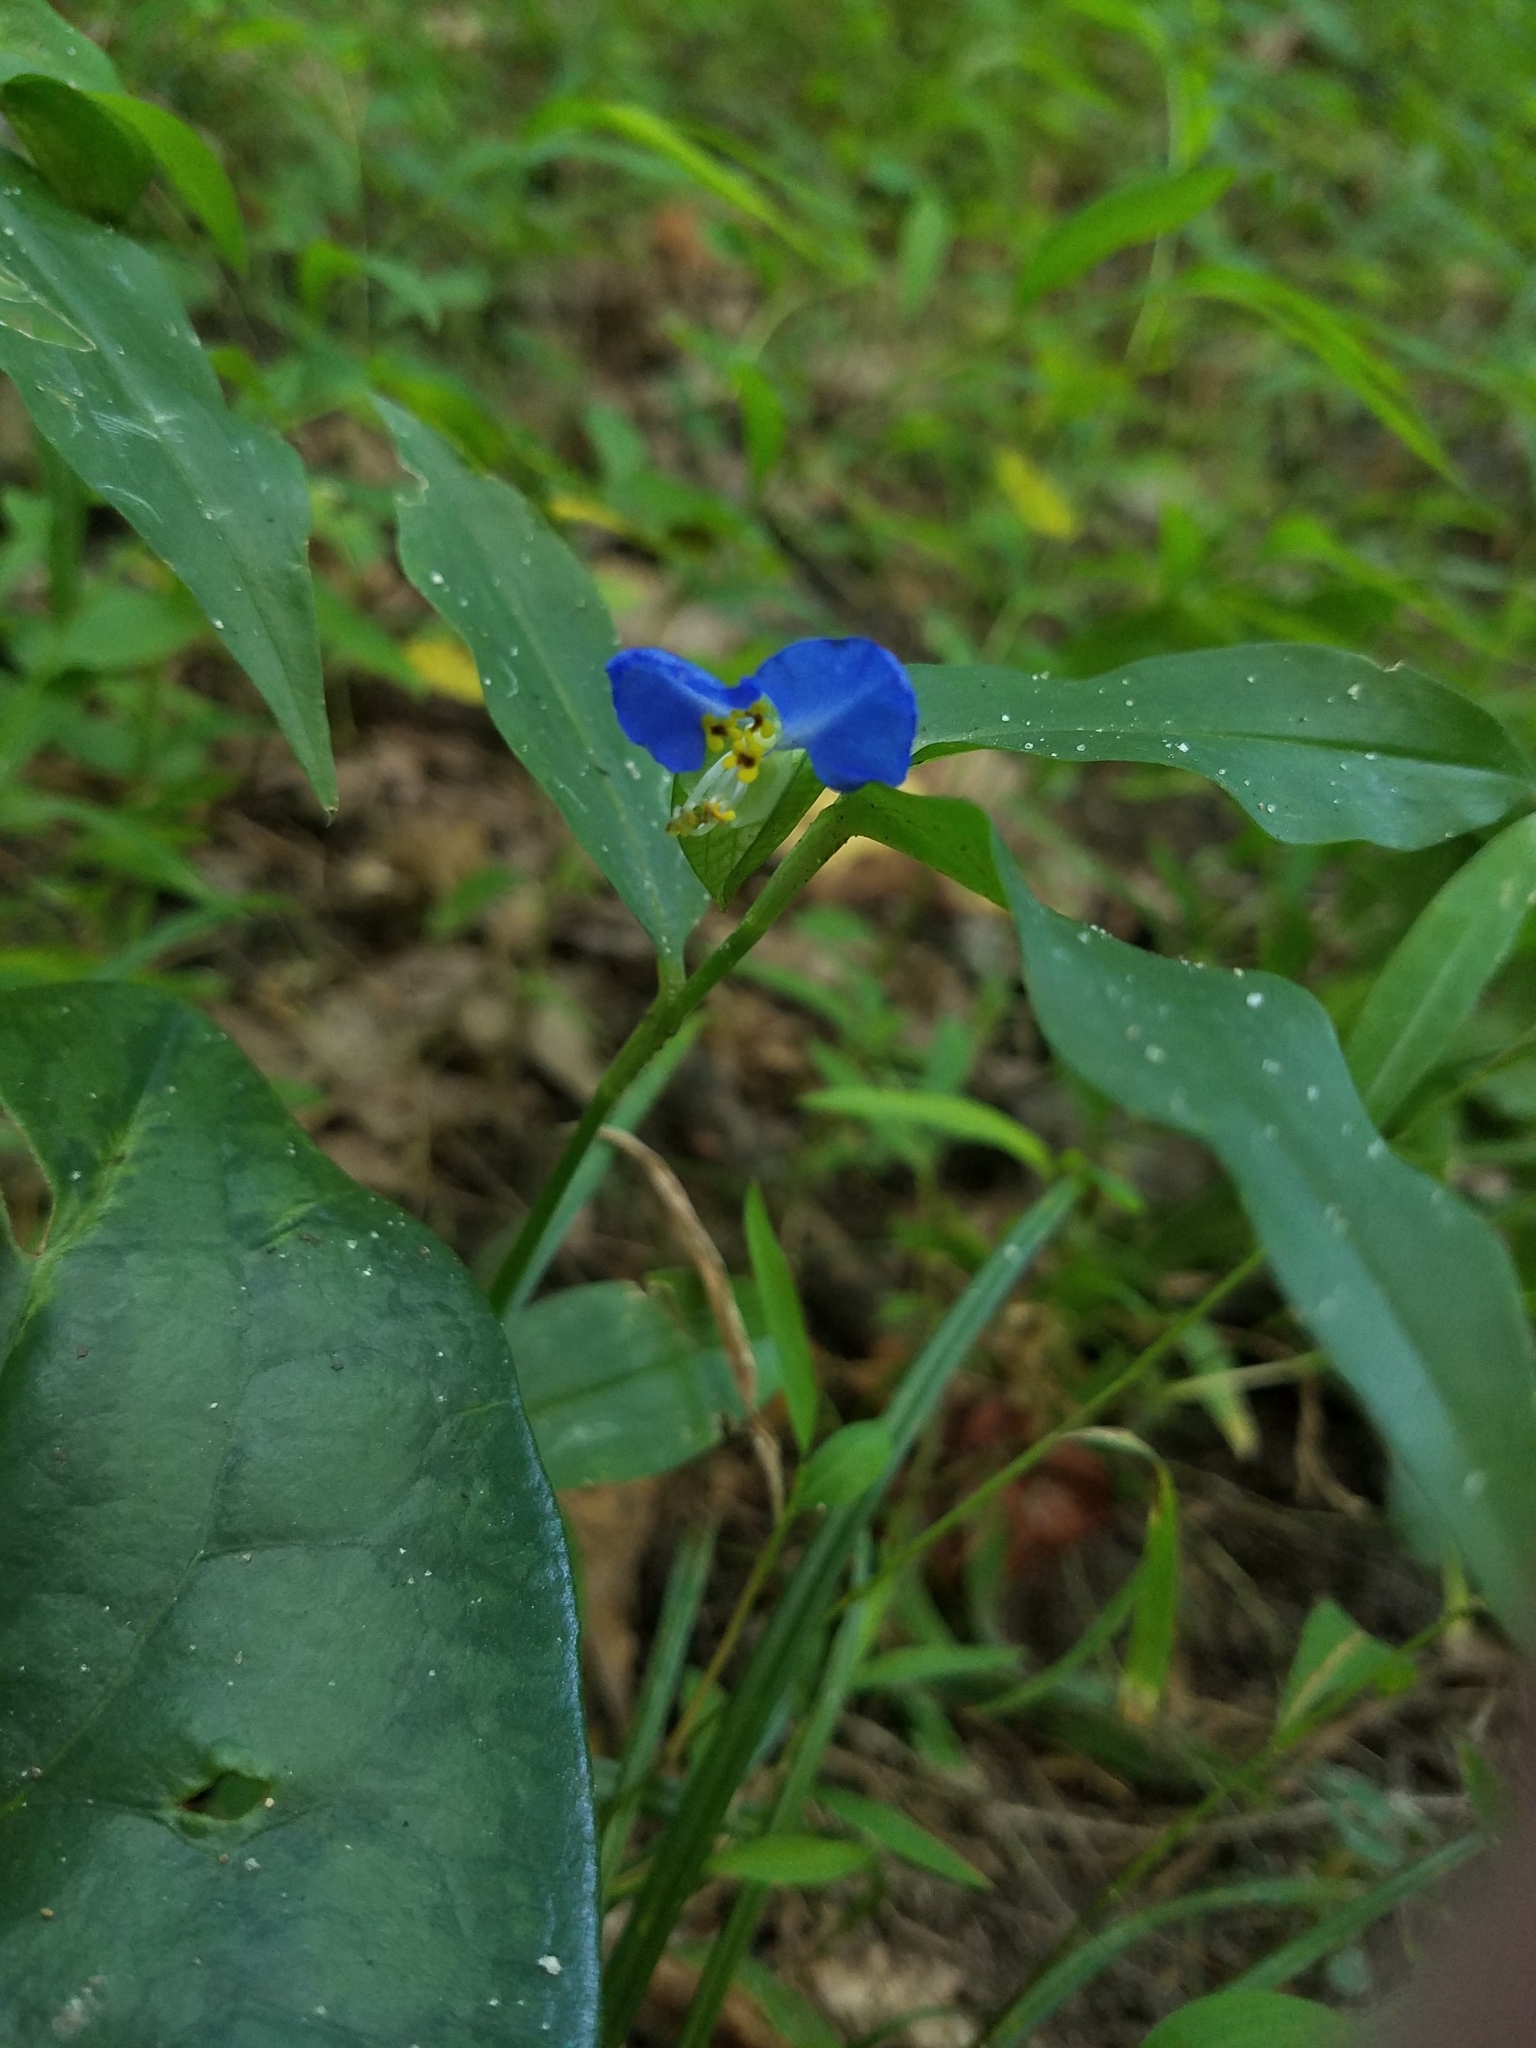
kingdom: Plantae
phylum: Tracheophyta
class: Liliopsida
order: Commelinales
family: Commelinaceae
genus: Commelina
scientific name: Commelina communis
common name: Asiatic dayflower
